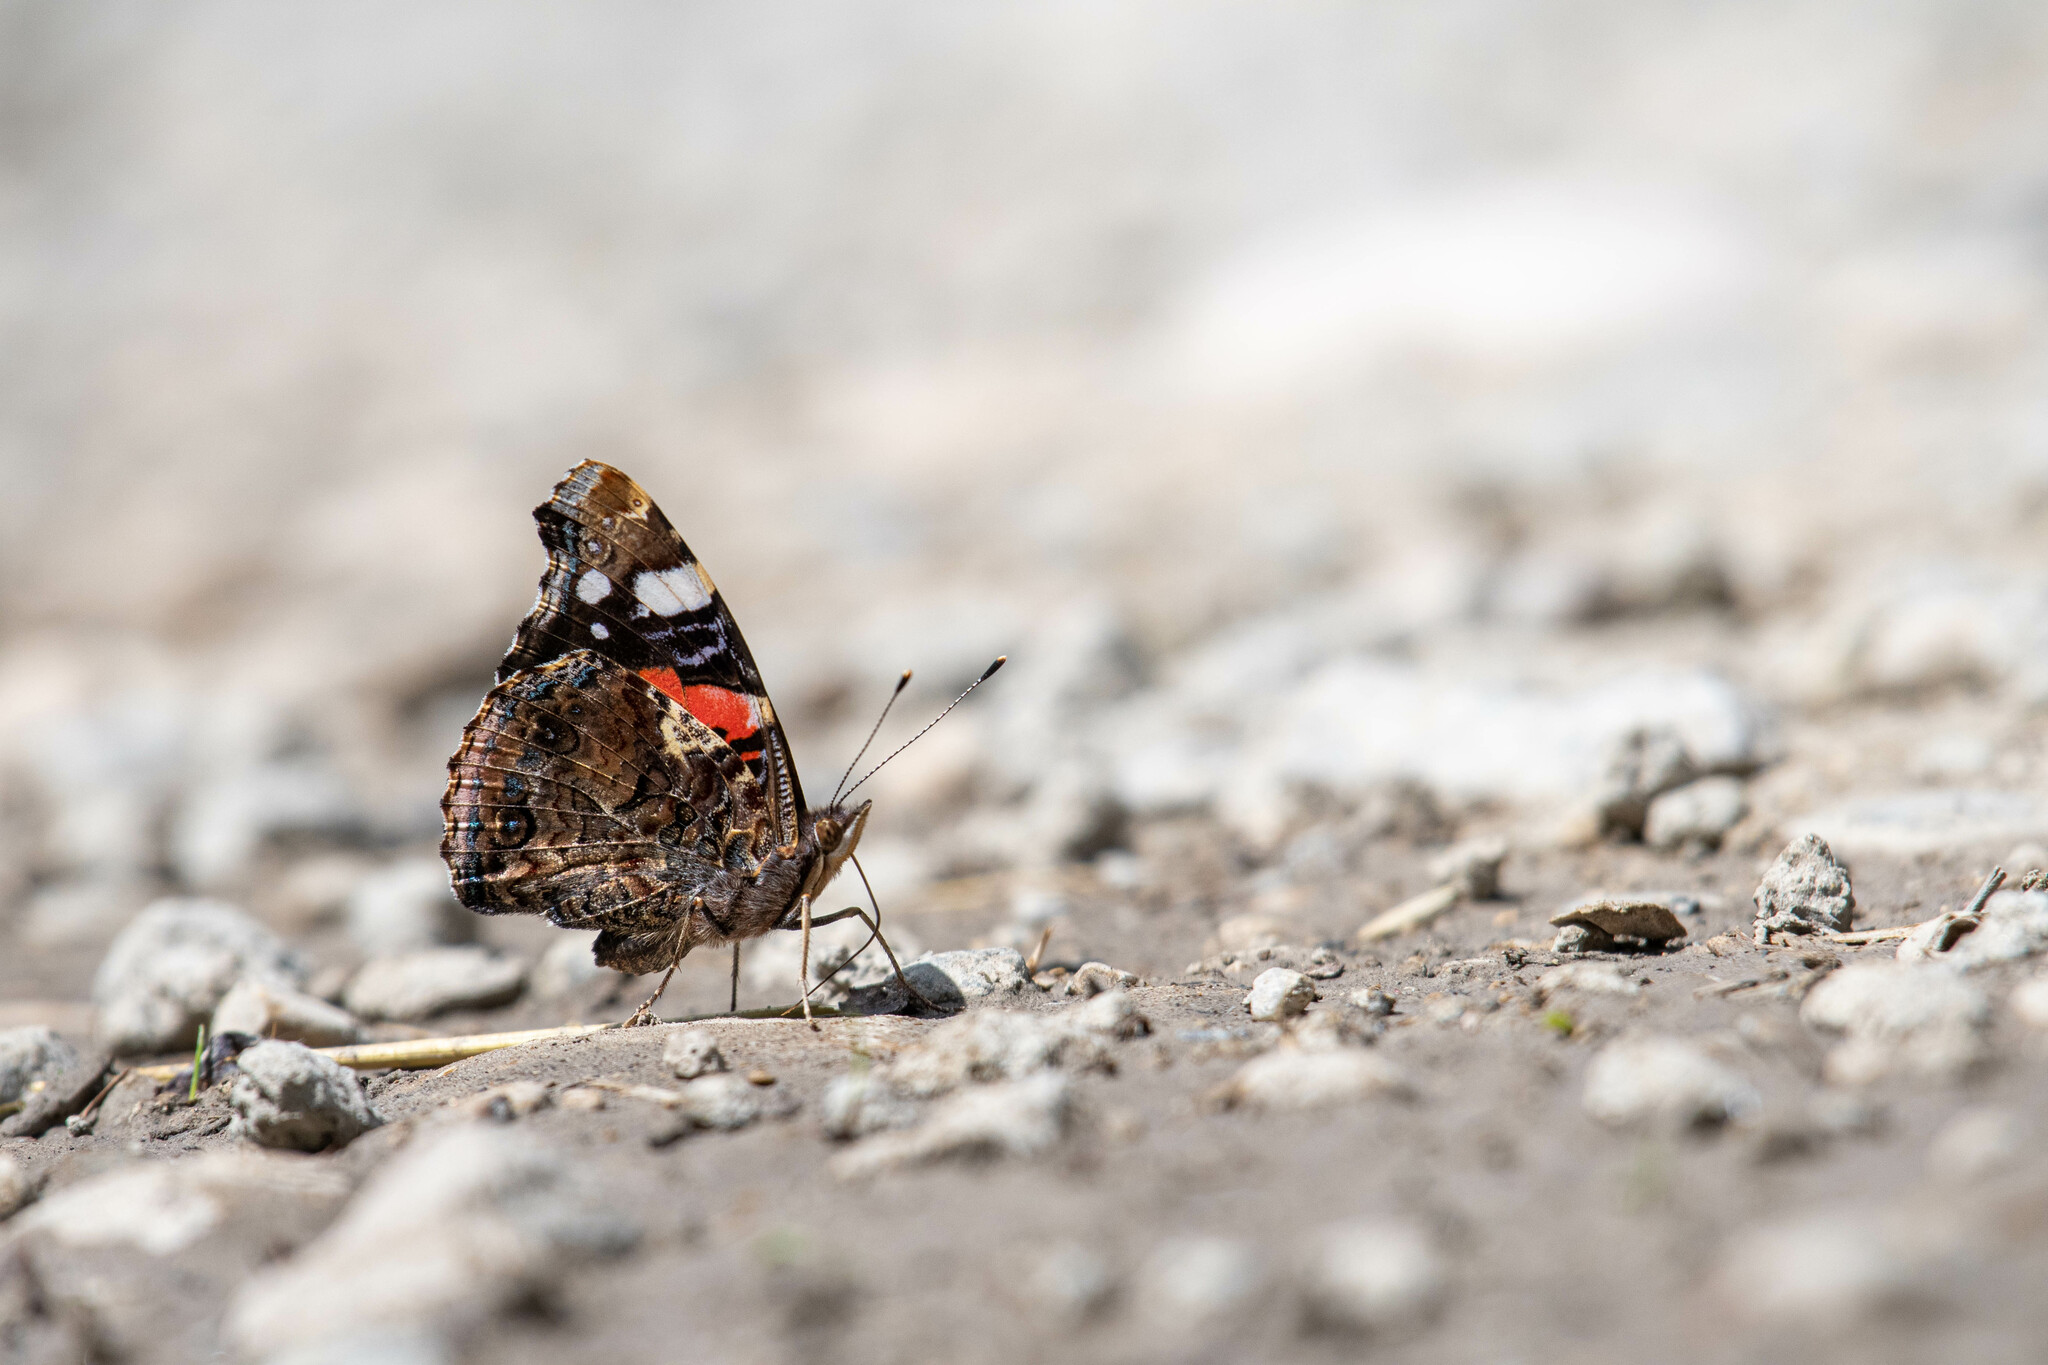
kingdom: Animalia
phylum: Arthropoda
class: Insecta
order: Lepidoptera
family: Nymphalidae
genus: Vanessa
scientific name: Vanessa atalanta
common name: Red admiral
